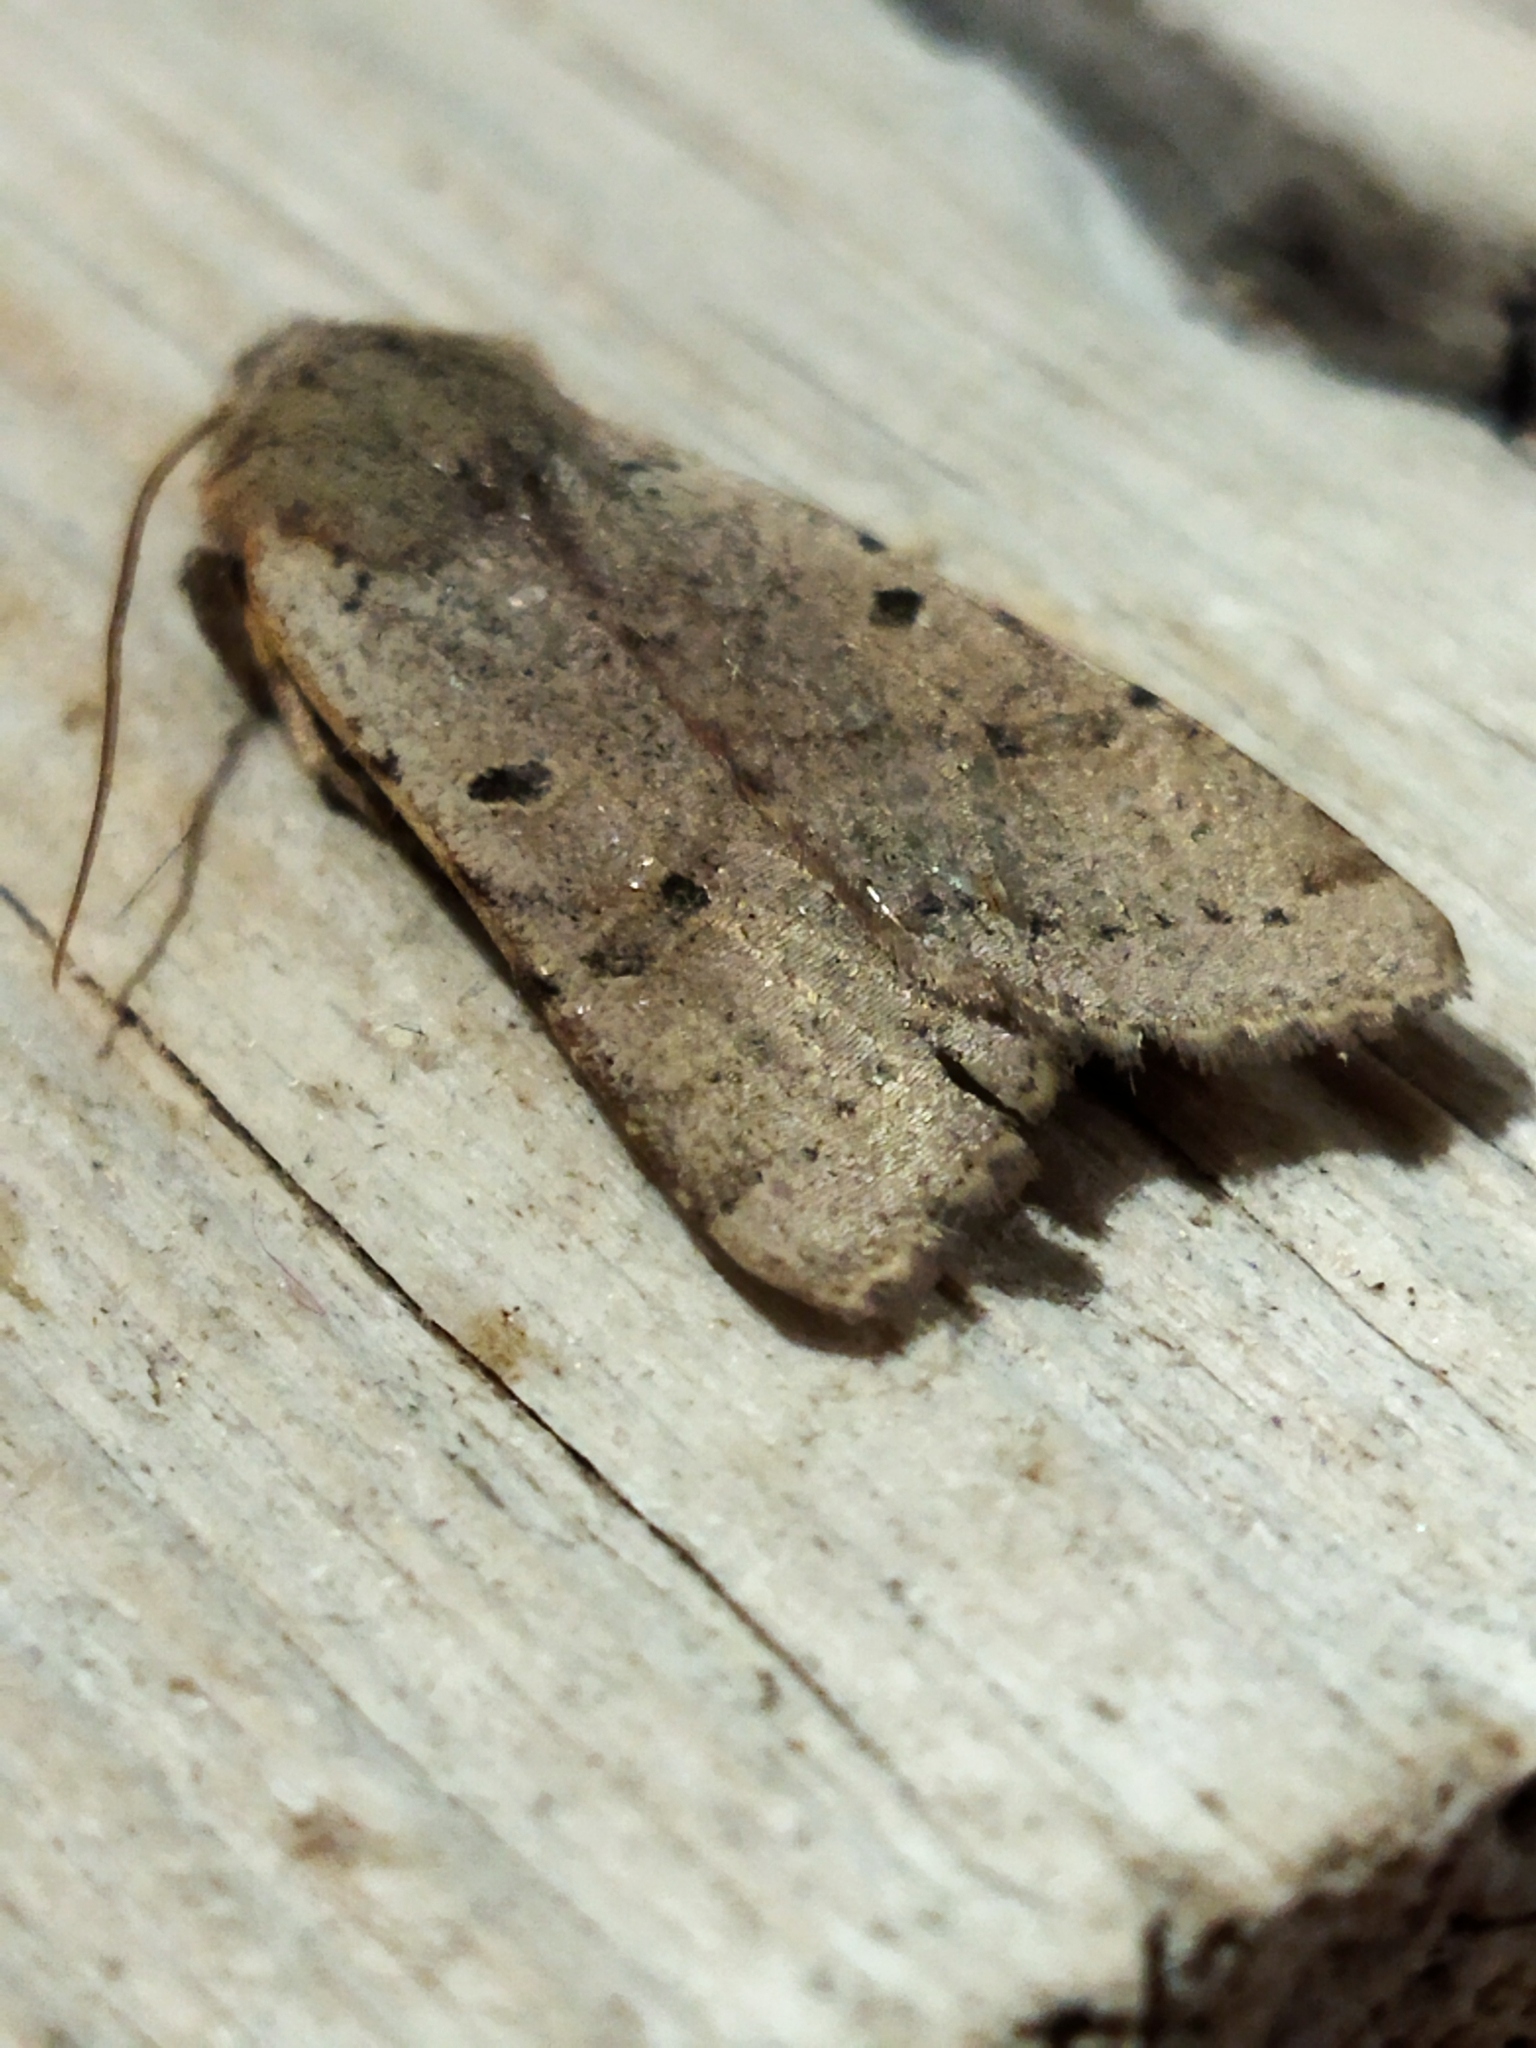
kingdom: Animalia
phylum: Arthropoda
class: Insecta
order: Lepidoptera
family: Noctuidae
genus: Agrochola
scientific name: Agrochola lychnidis
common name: Beaded chestnut
